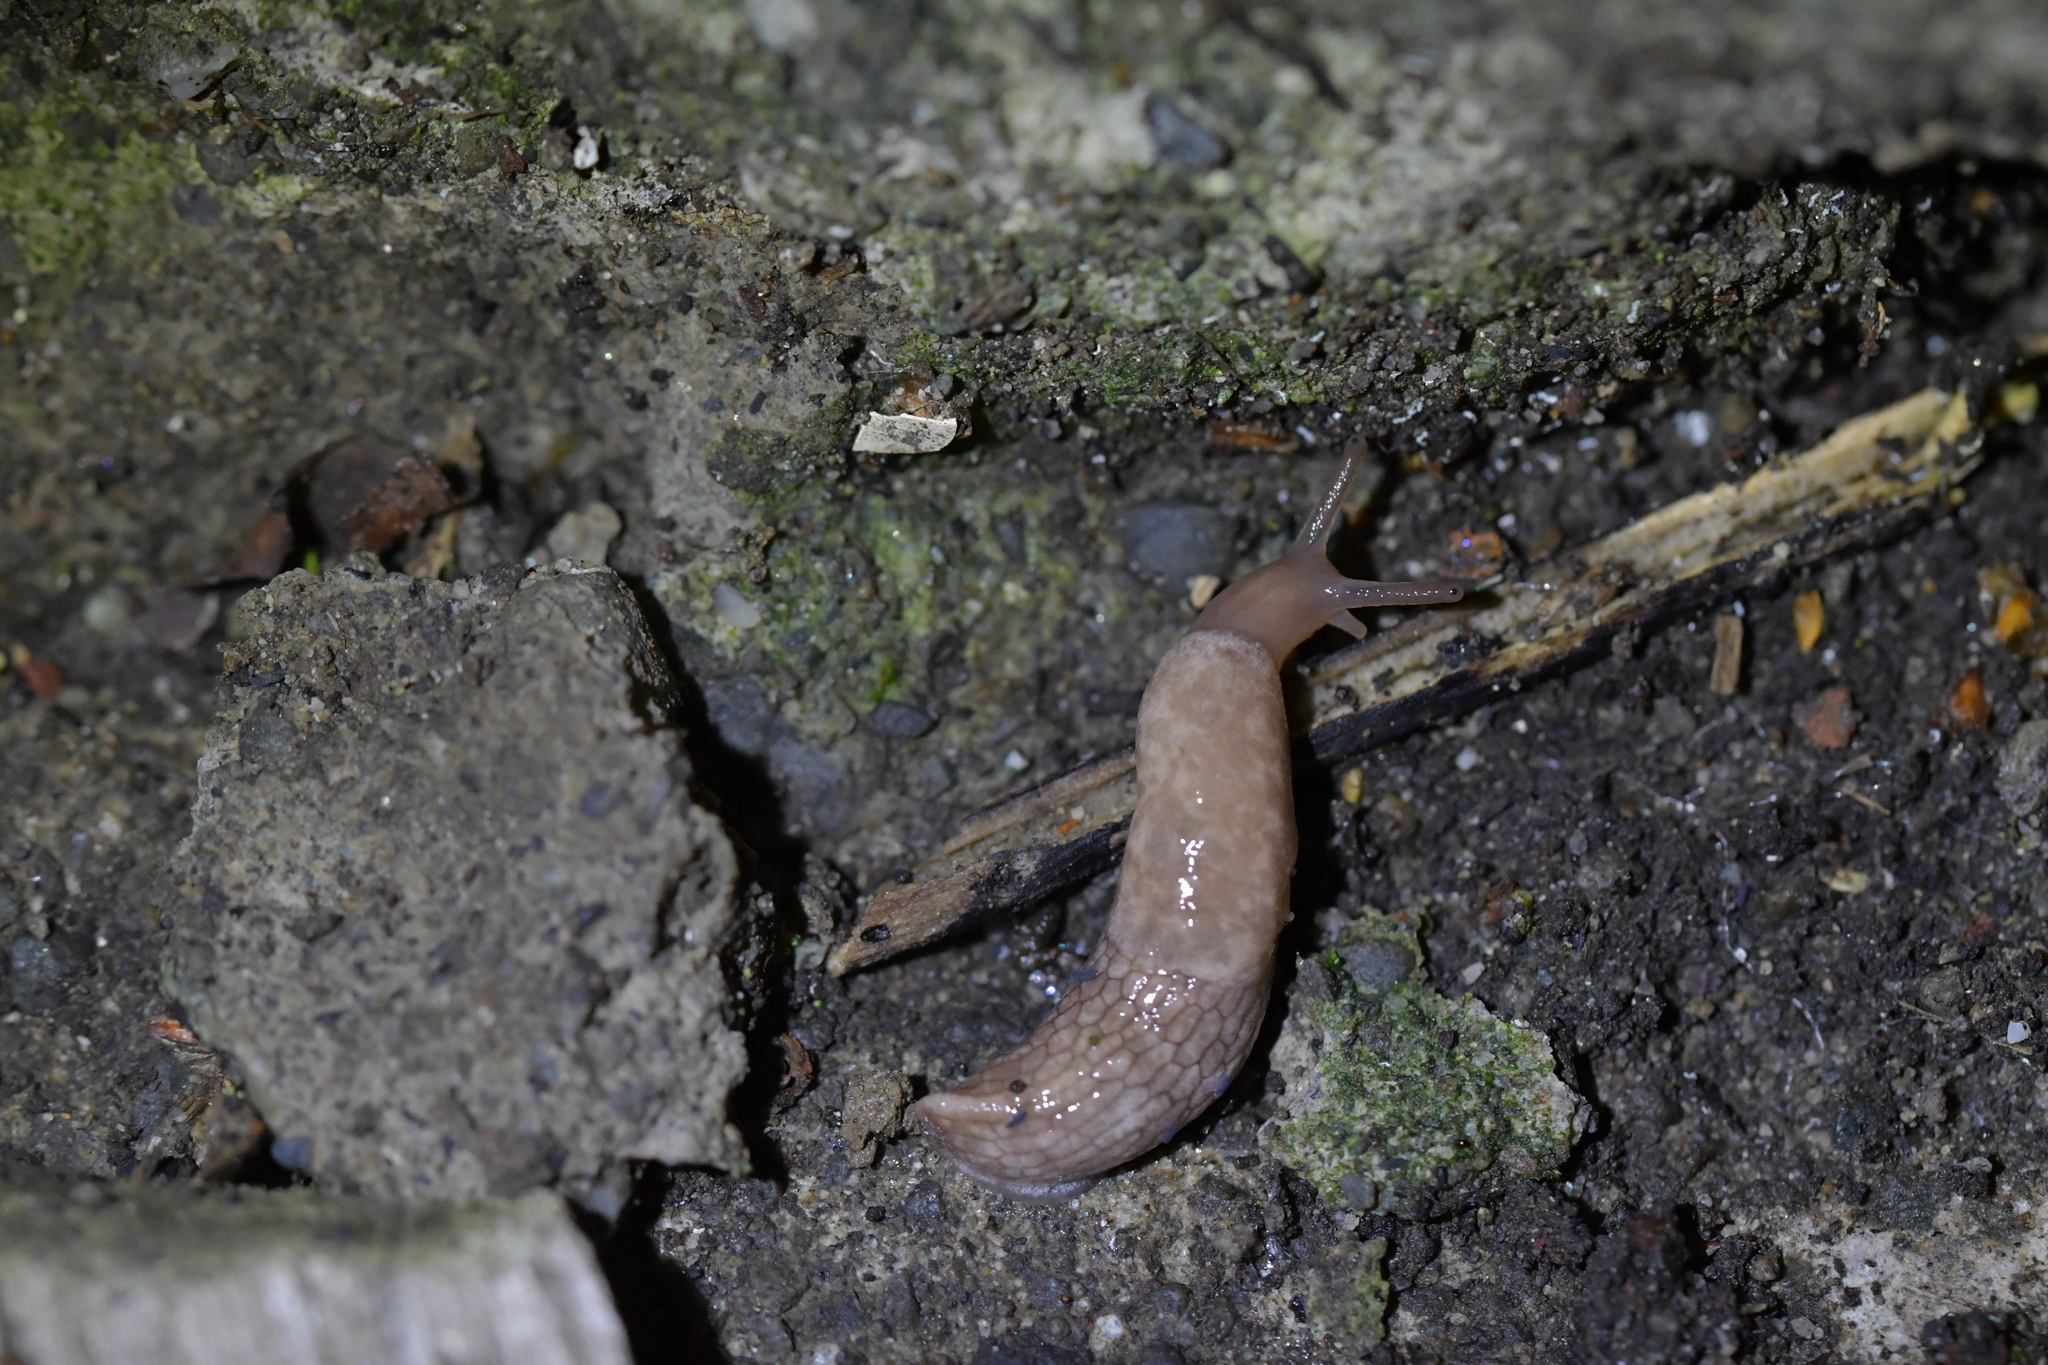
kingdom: Animalia
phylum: Mollusca
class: Gastropoda
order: Stylommatophora
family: Agriolimacidae
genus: Deroceras
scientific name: Deroceras reticulatum
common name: Gray field slug
